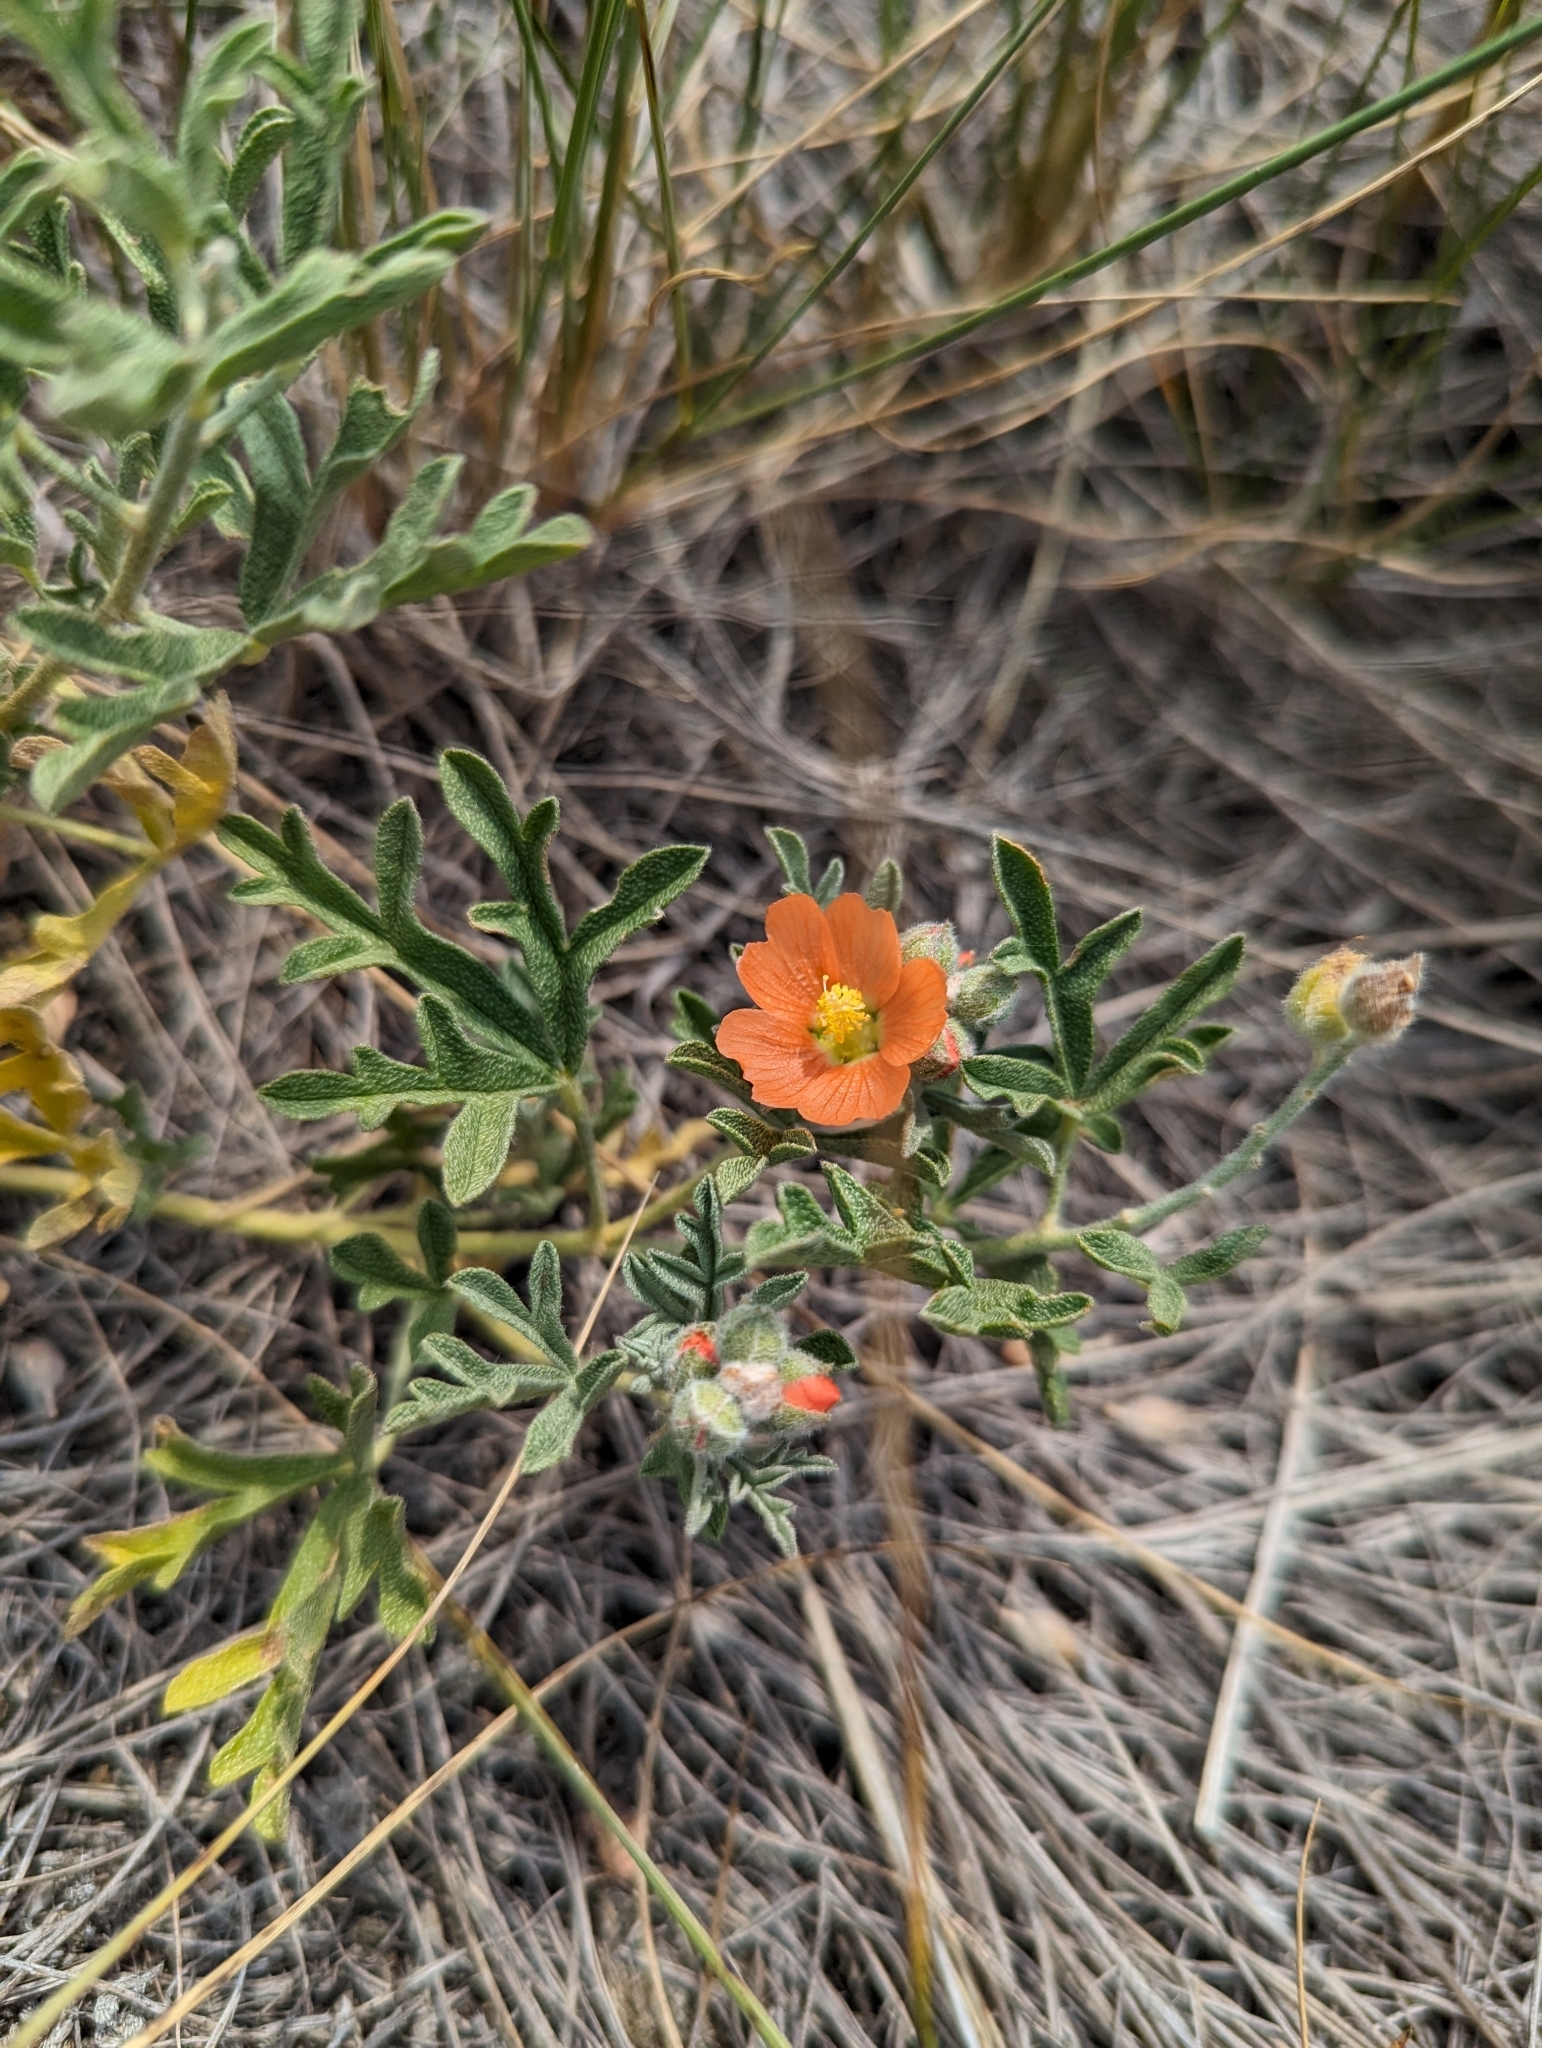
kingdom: Plantae
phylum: Tracheophyta
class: Magnoliopsida
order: Malvales
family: Malvaceae
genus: Sphaeralcea
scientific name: Sphaeralcea coccinea
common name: Moss-rose
